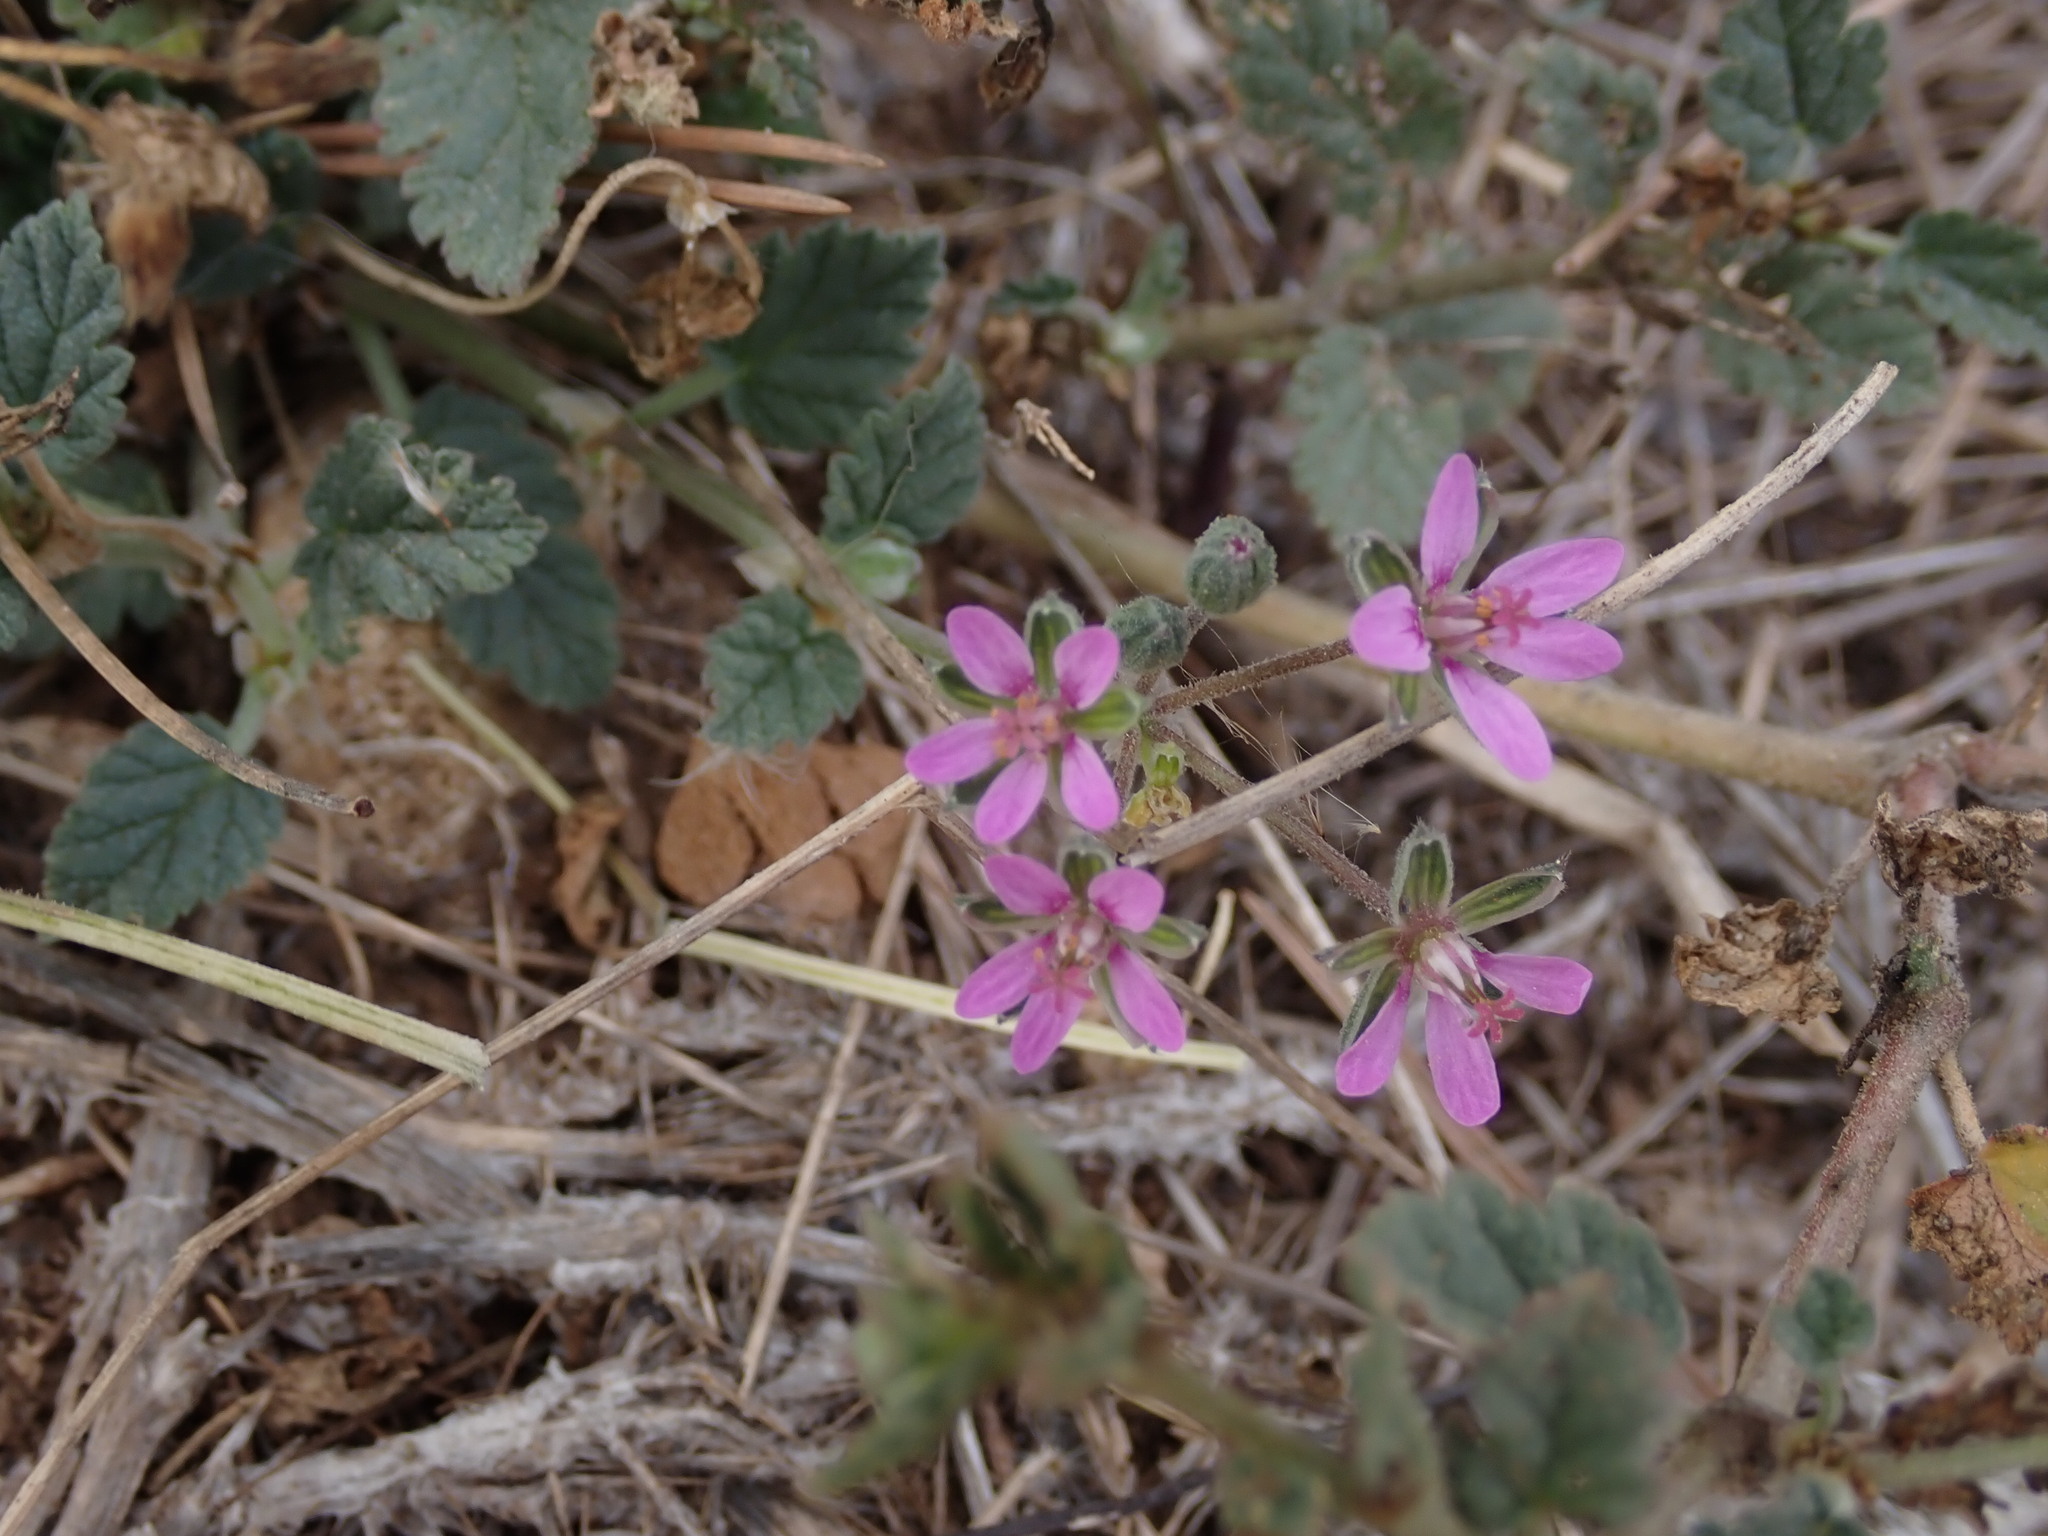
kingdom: Plantae
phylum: Tracheophyta
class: Magnoliopsida
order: Geraniales
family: Geraniaceae
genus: Erodium
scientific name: Erodium malacoides
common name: Soft stork's-bill
